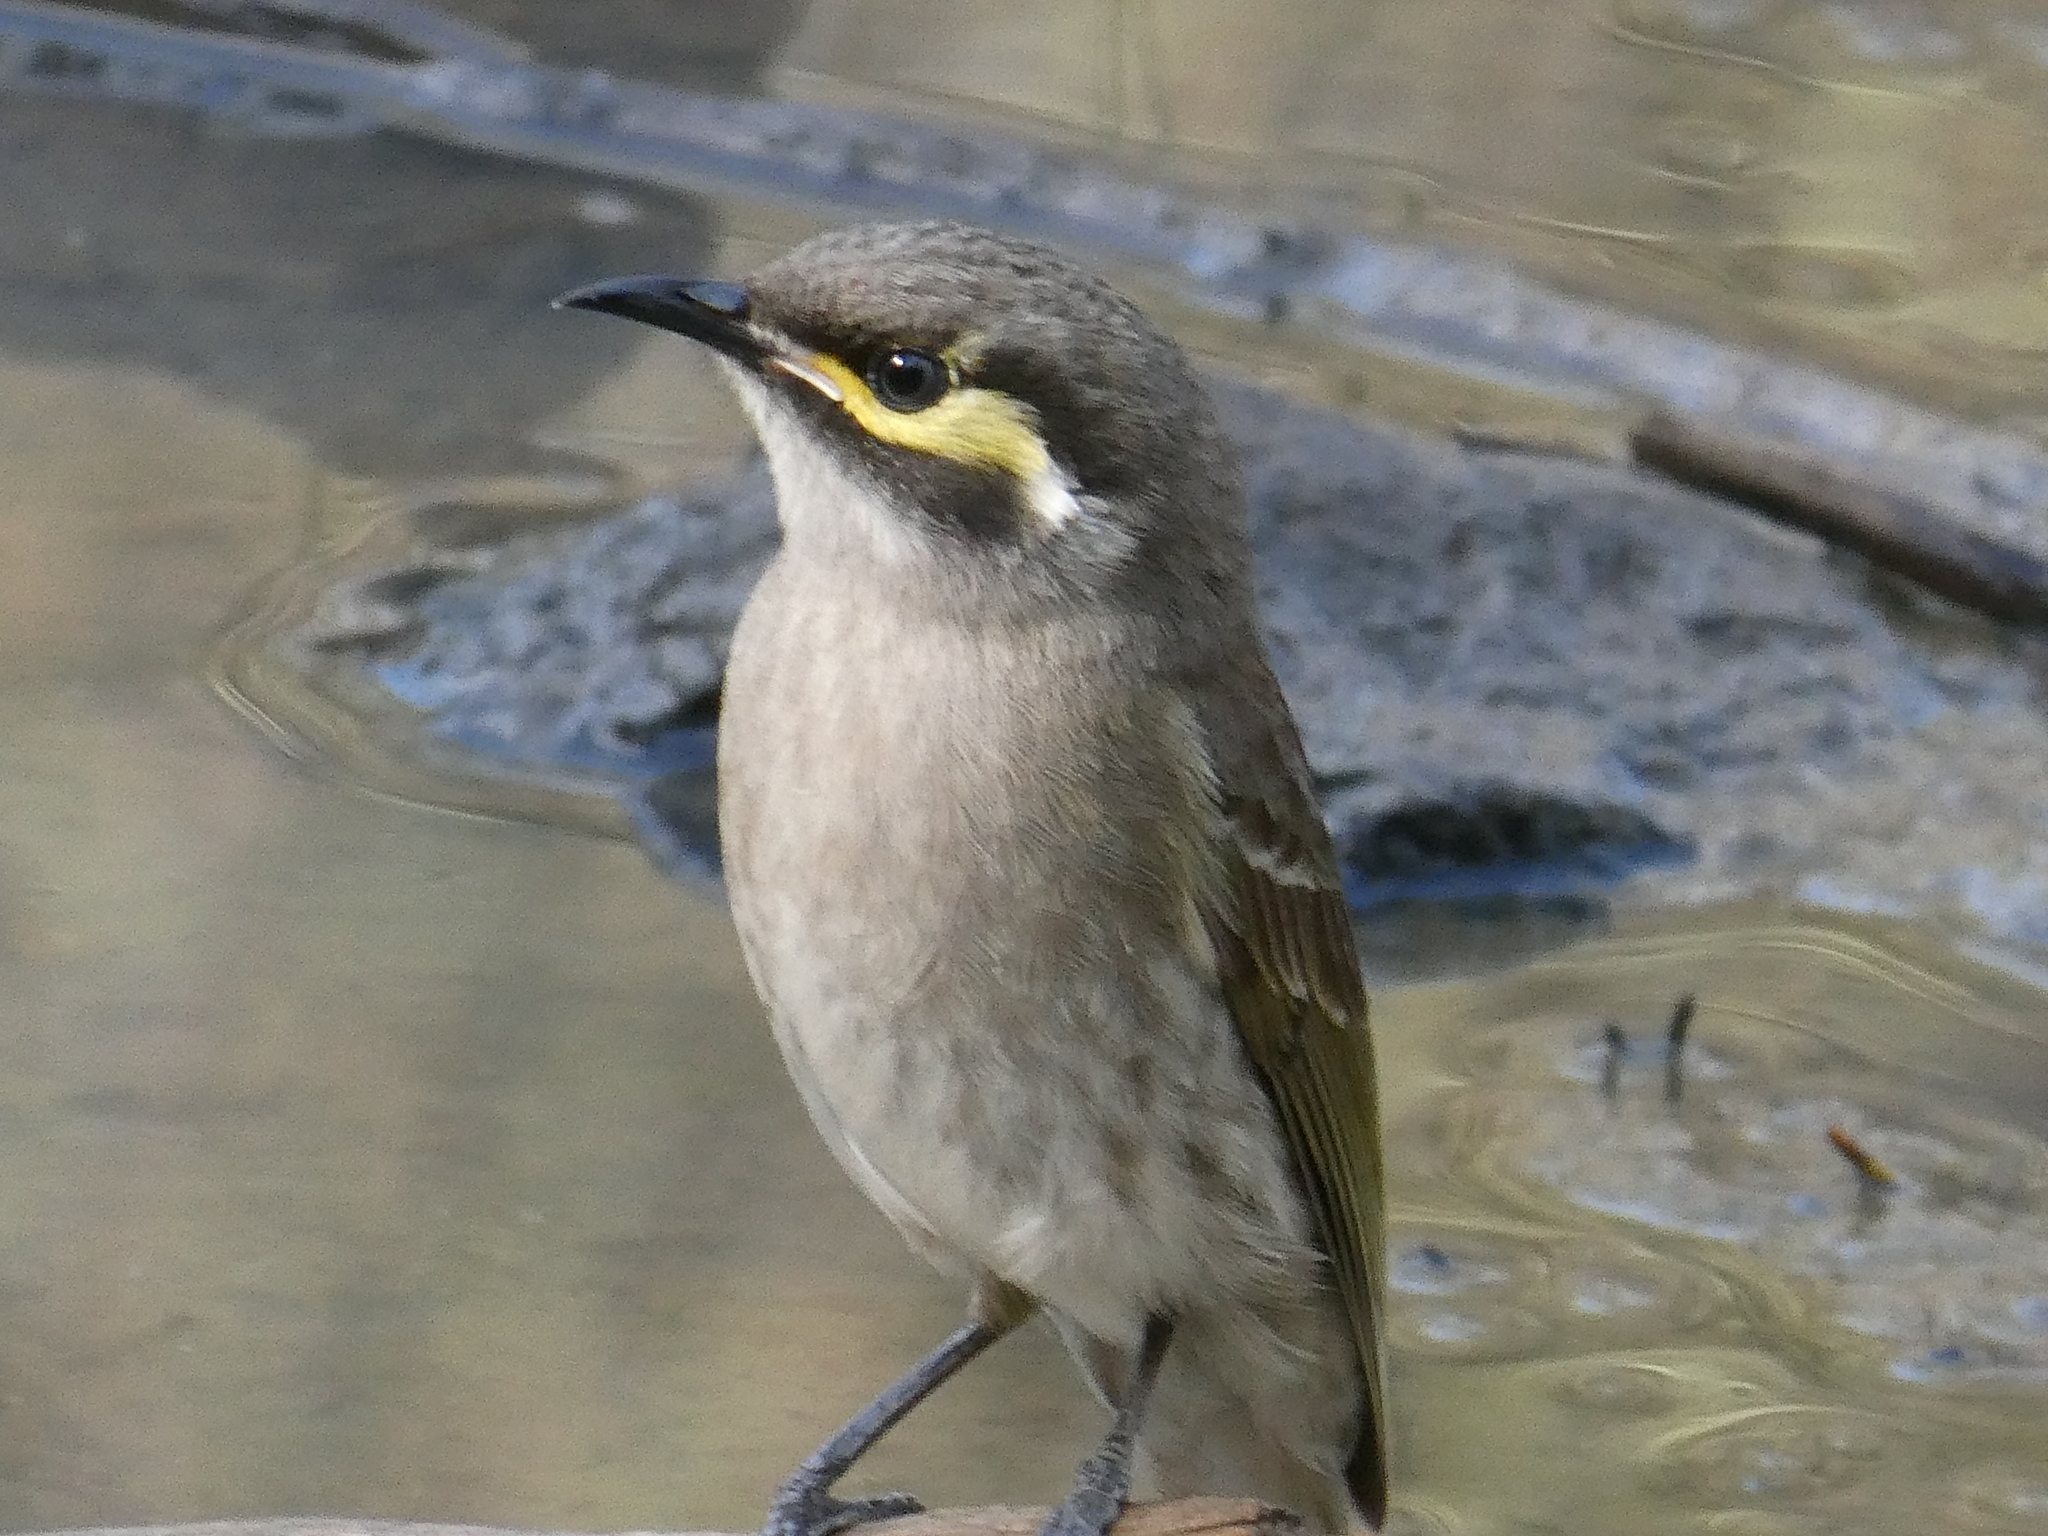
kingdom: Animalia
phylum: Chordata
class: Aves
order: Passeriformes
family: Meliphagidae
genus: Caligavis
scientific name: Caligavis chrysops
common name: Yellow-faced honeyeater
